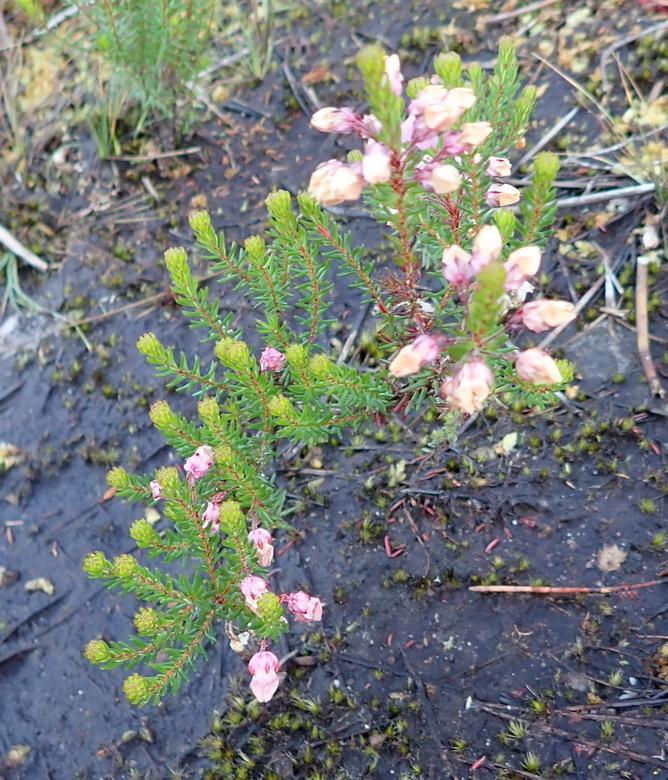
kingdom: Plantae
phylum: Tracheophyta
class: Magnoliopsida
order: Ericales
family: Ericaceae
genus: Erica
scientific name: Erica cubica
